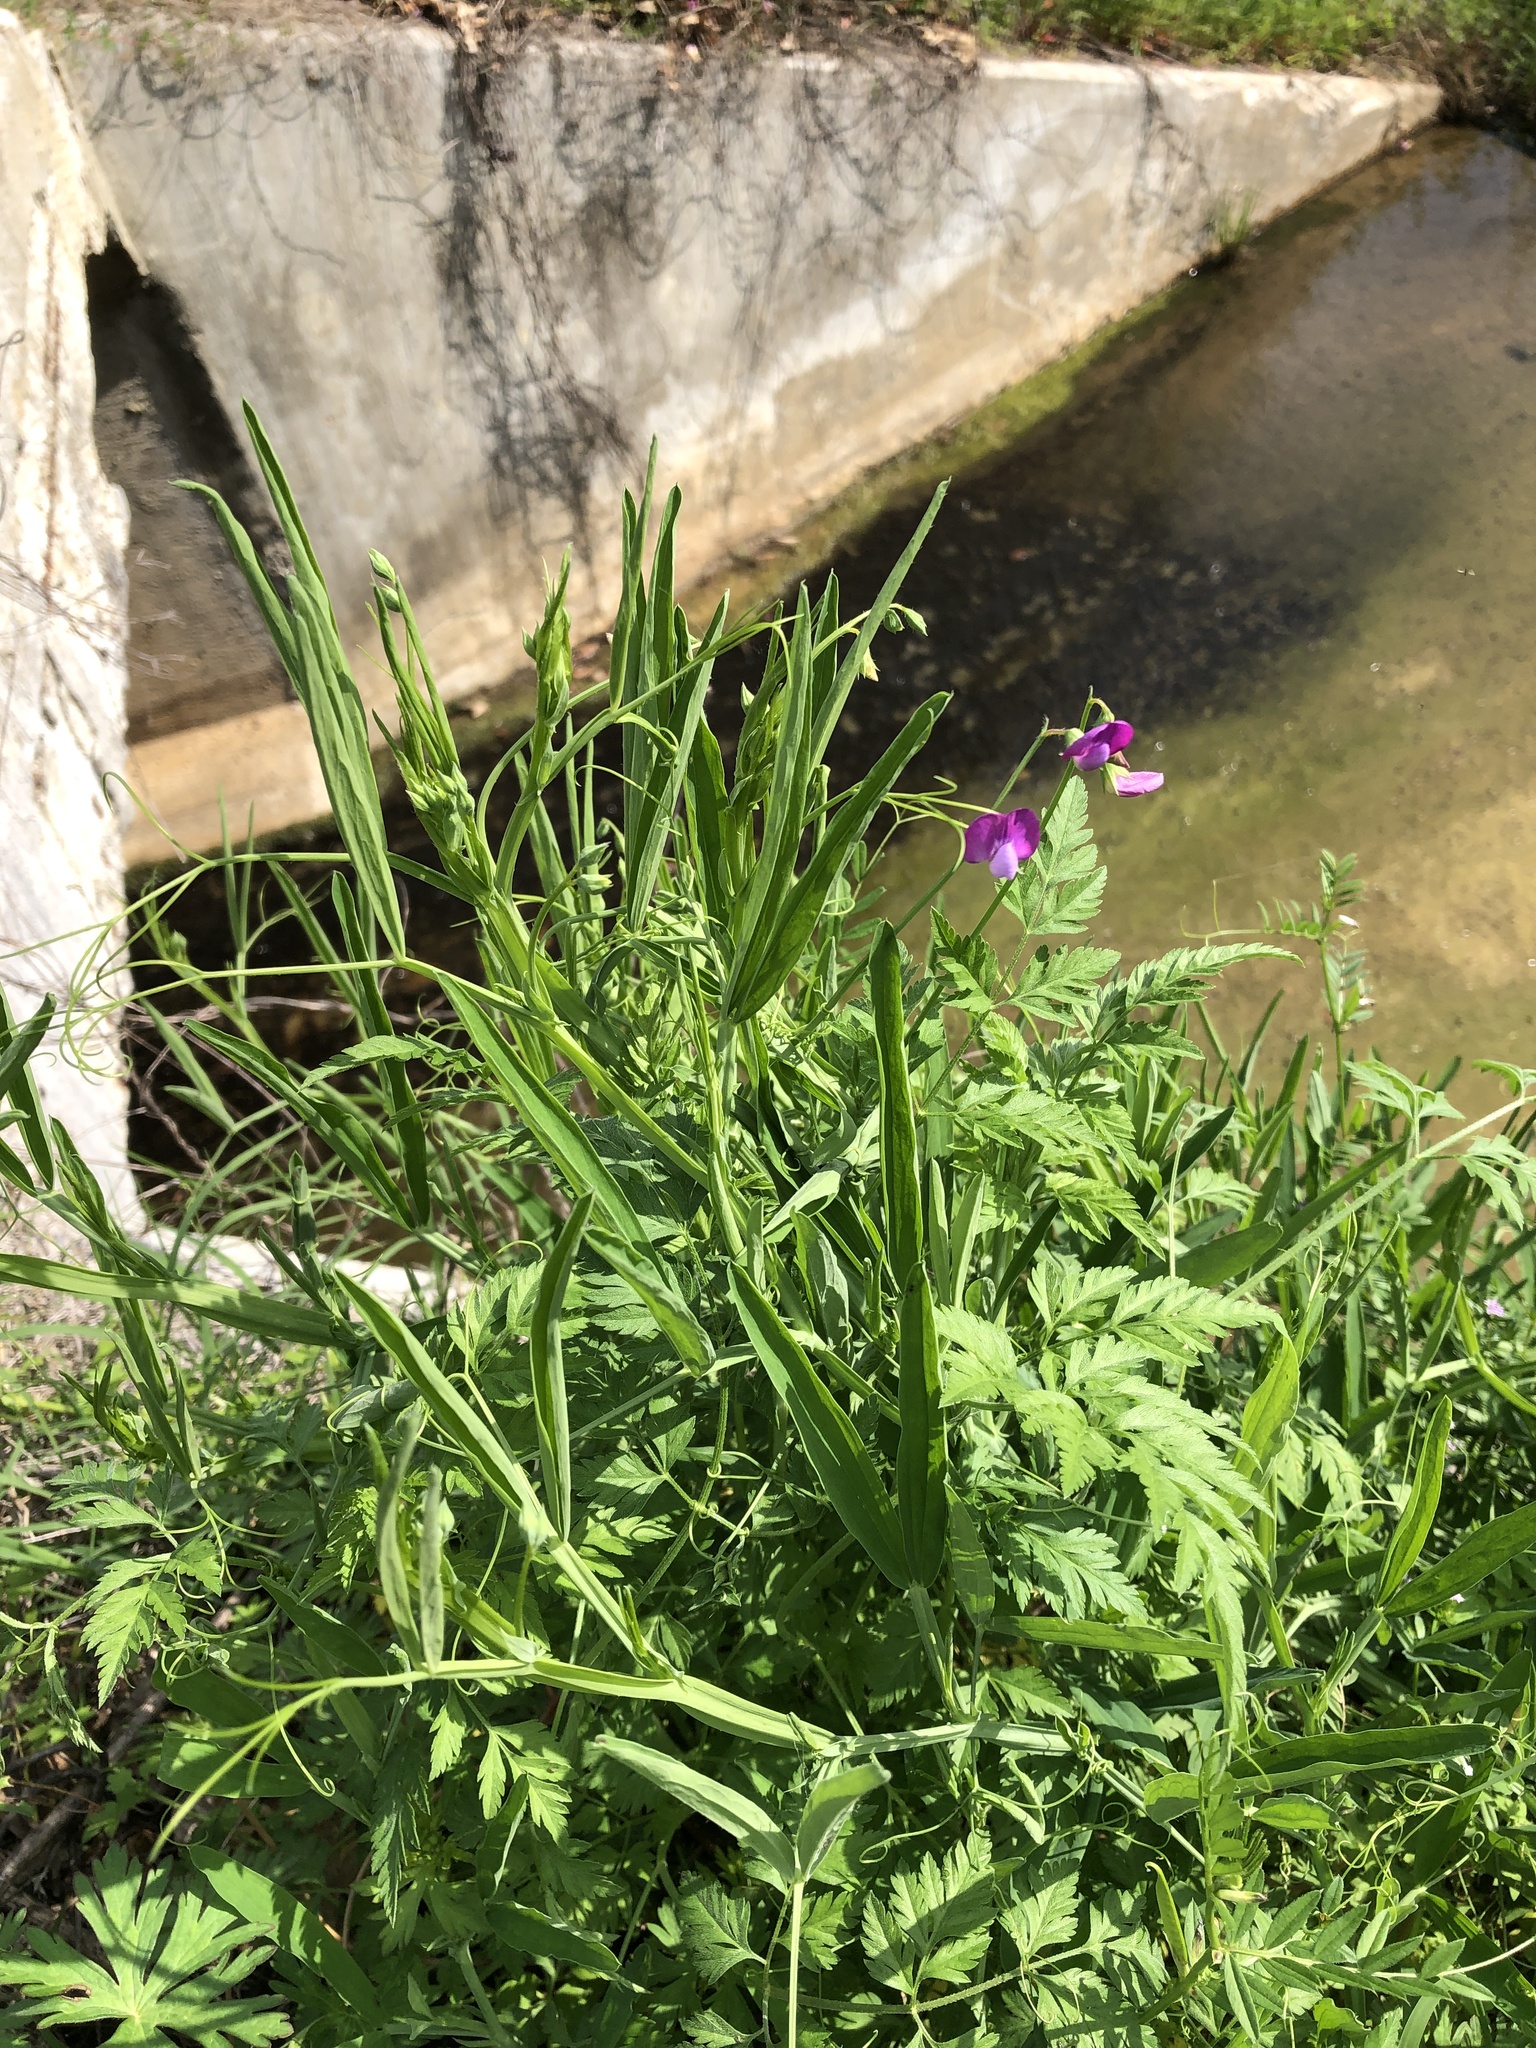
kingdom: Plantae
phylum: Tracheophyta
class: Magnoliopsida
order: Fabales
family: Fabaceae
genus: Lathyrus
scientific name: Lathyrus hirsutus
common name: Hairy vetchling
